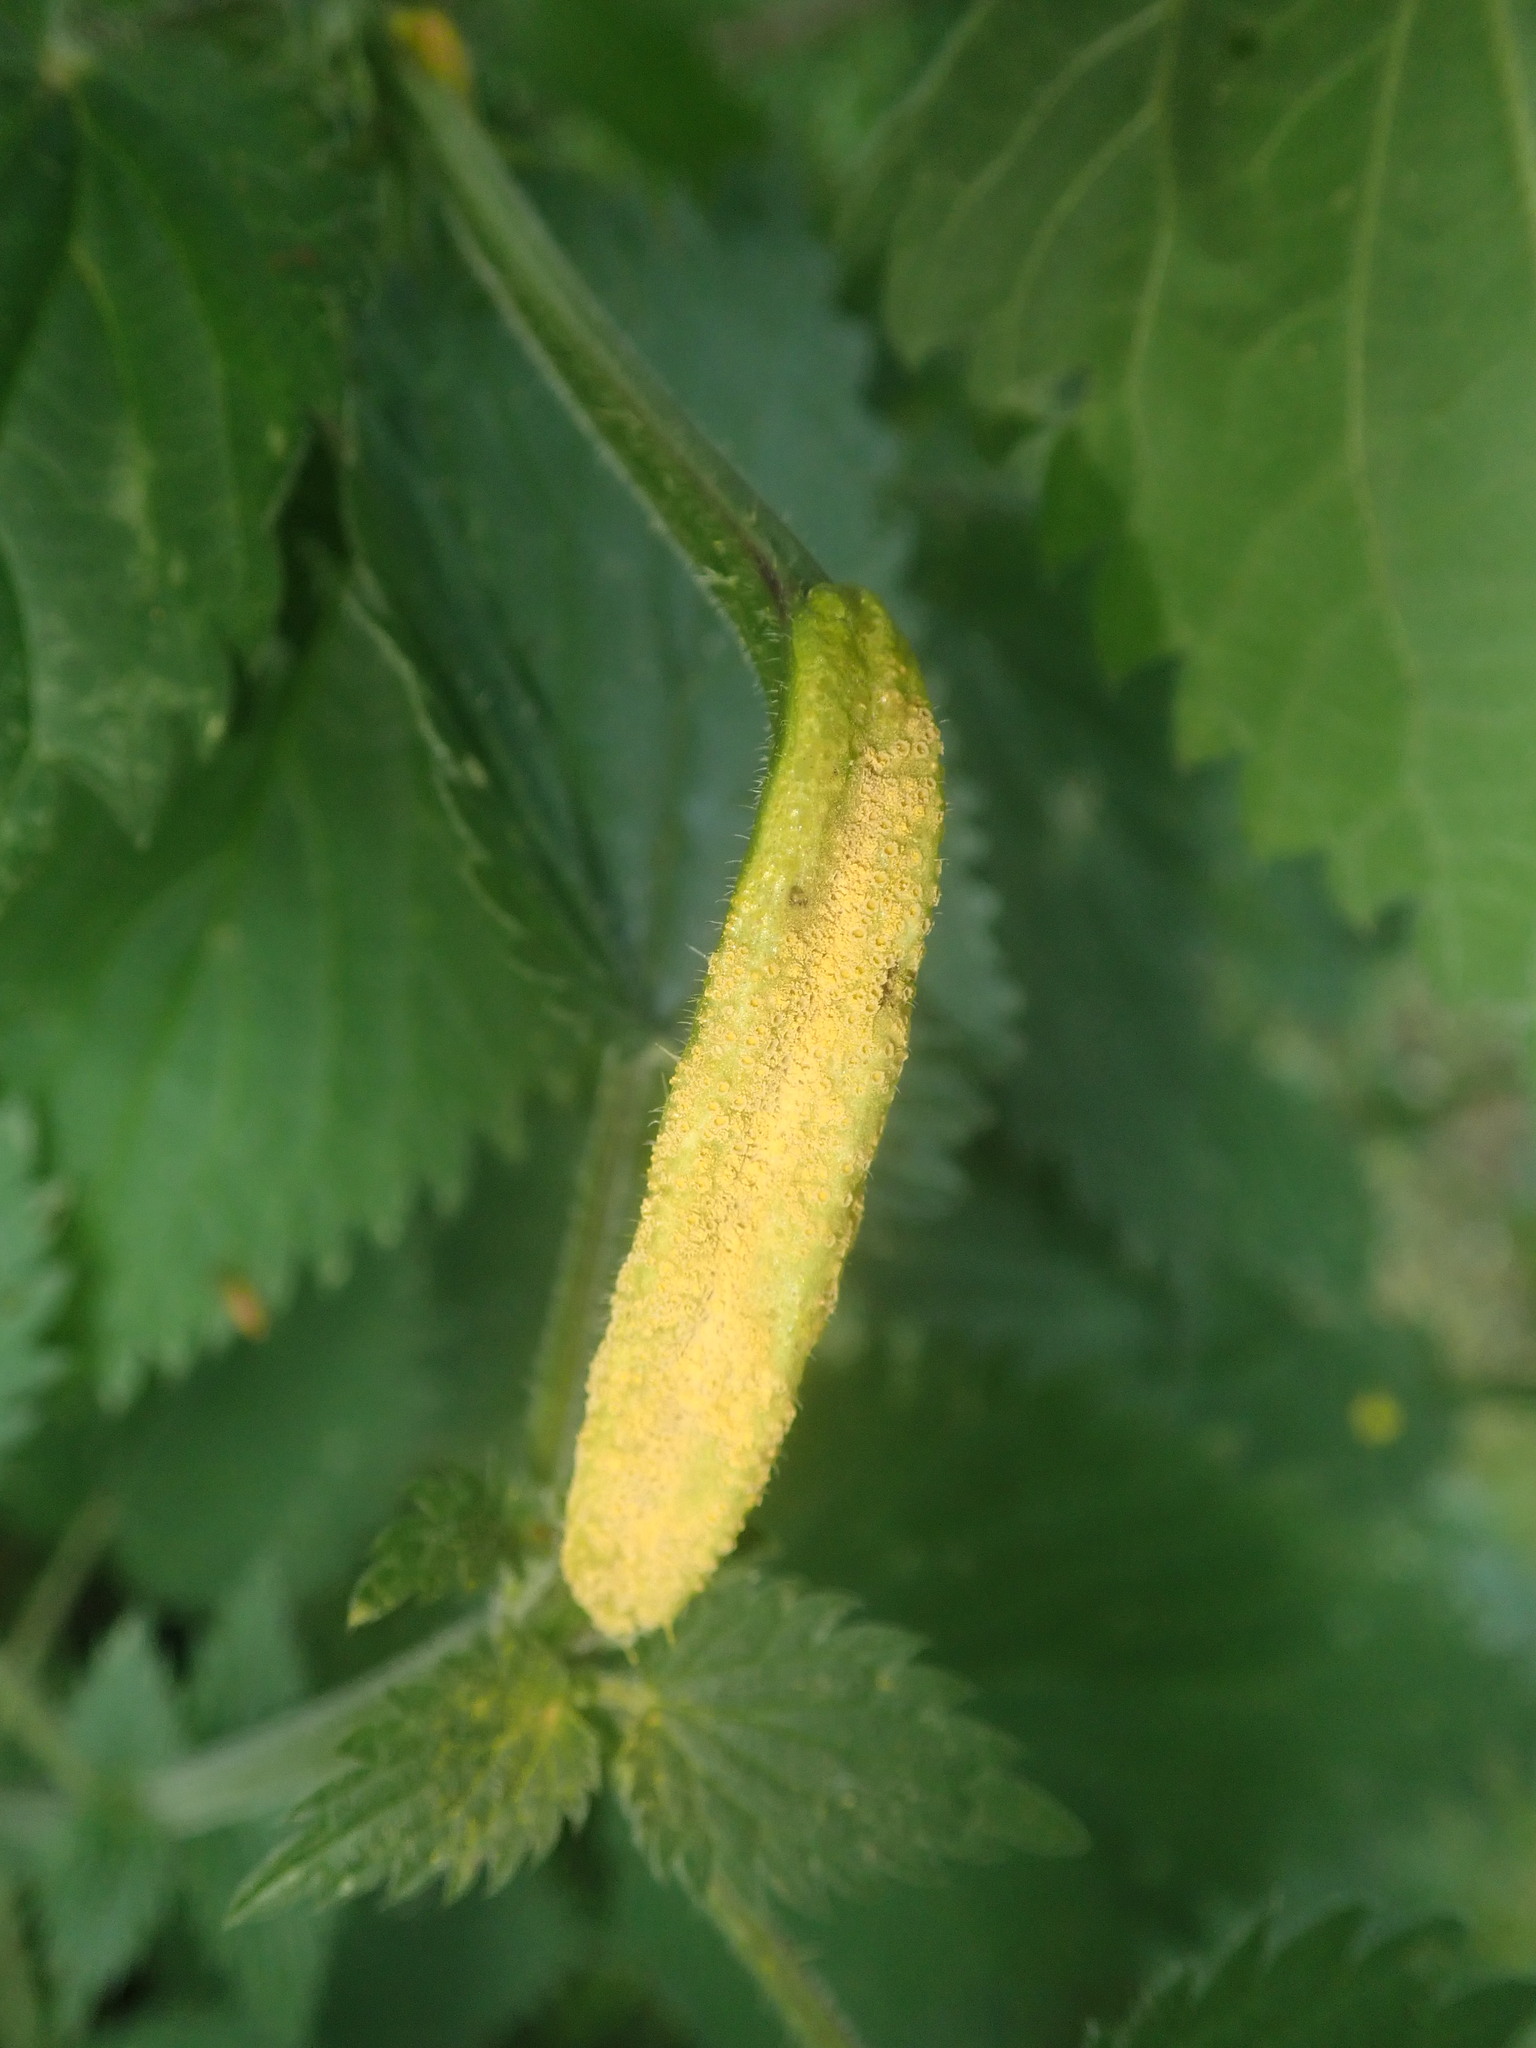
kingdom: Fungi
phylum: Basidiomycota
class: Pucciniomycetes
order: Pucciniales
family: Pucciniaceae
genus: Puccinia
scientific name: Puccinia urticata
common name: Nettle clustercup rust fungus
